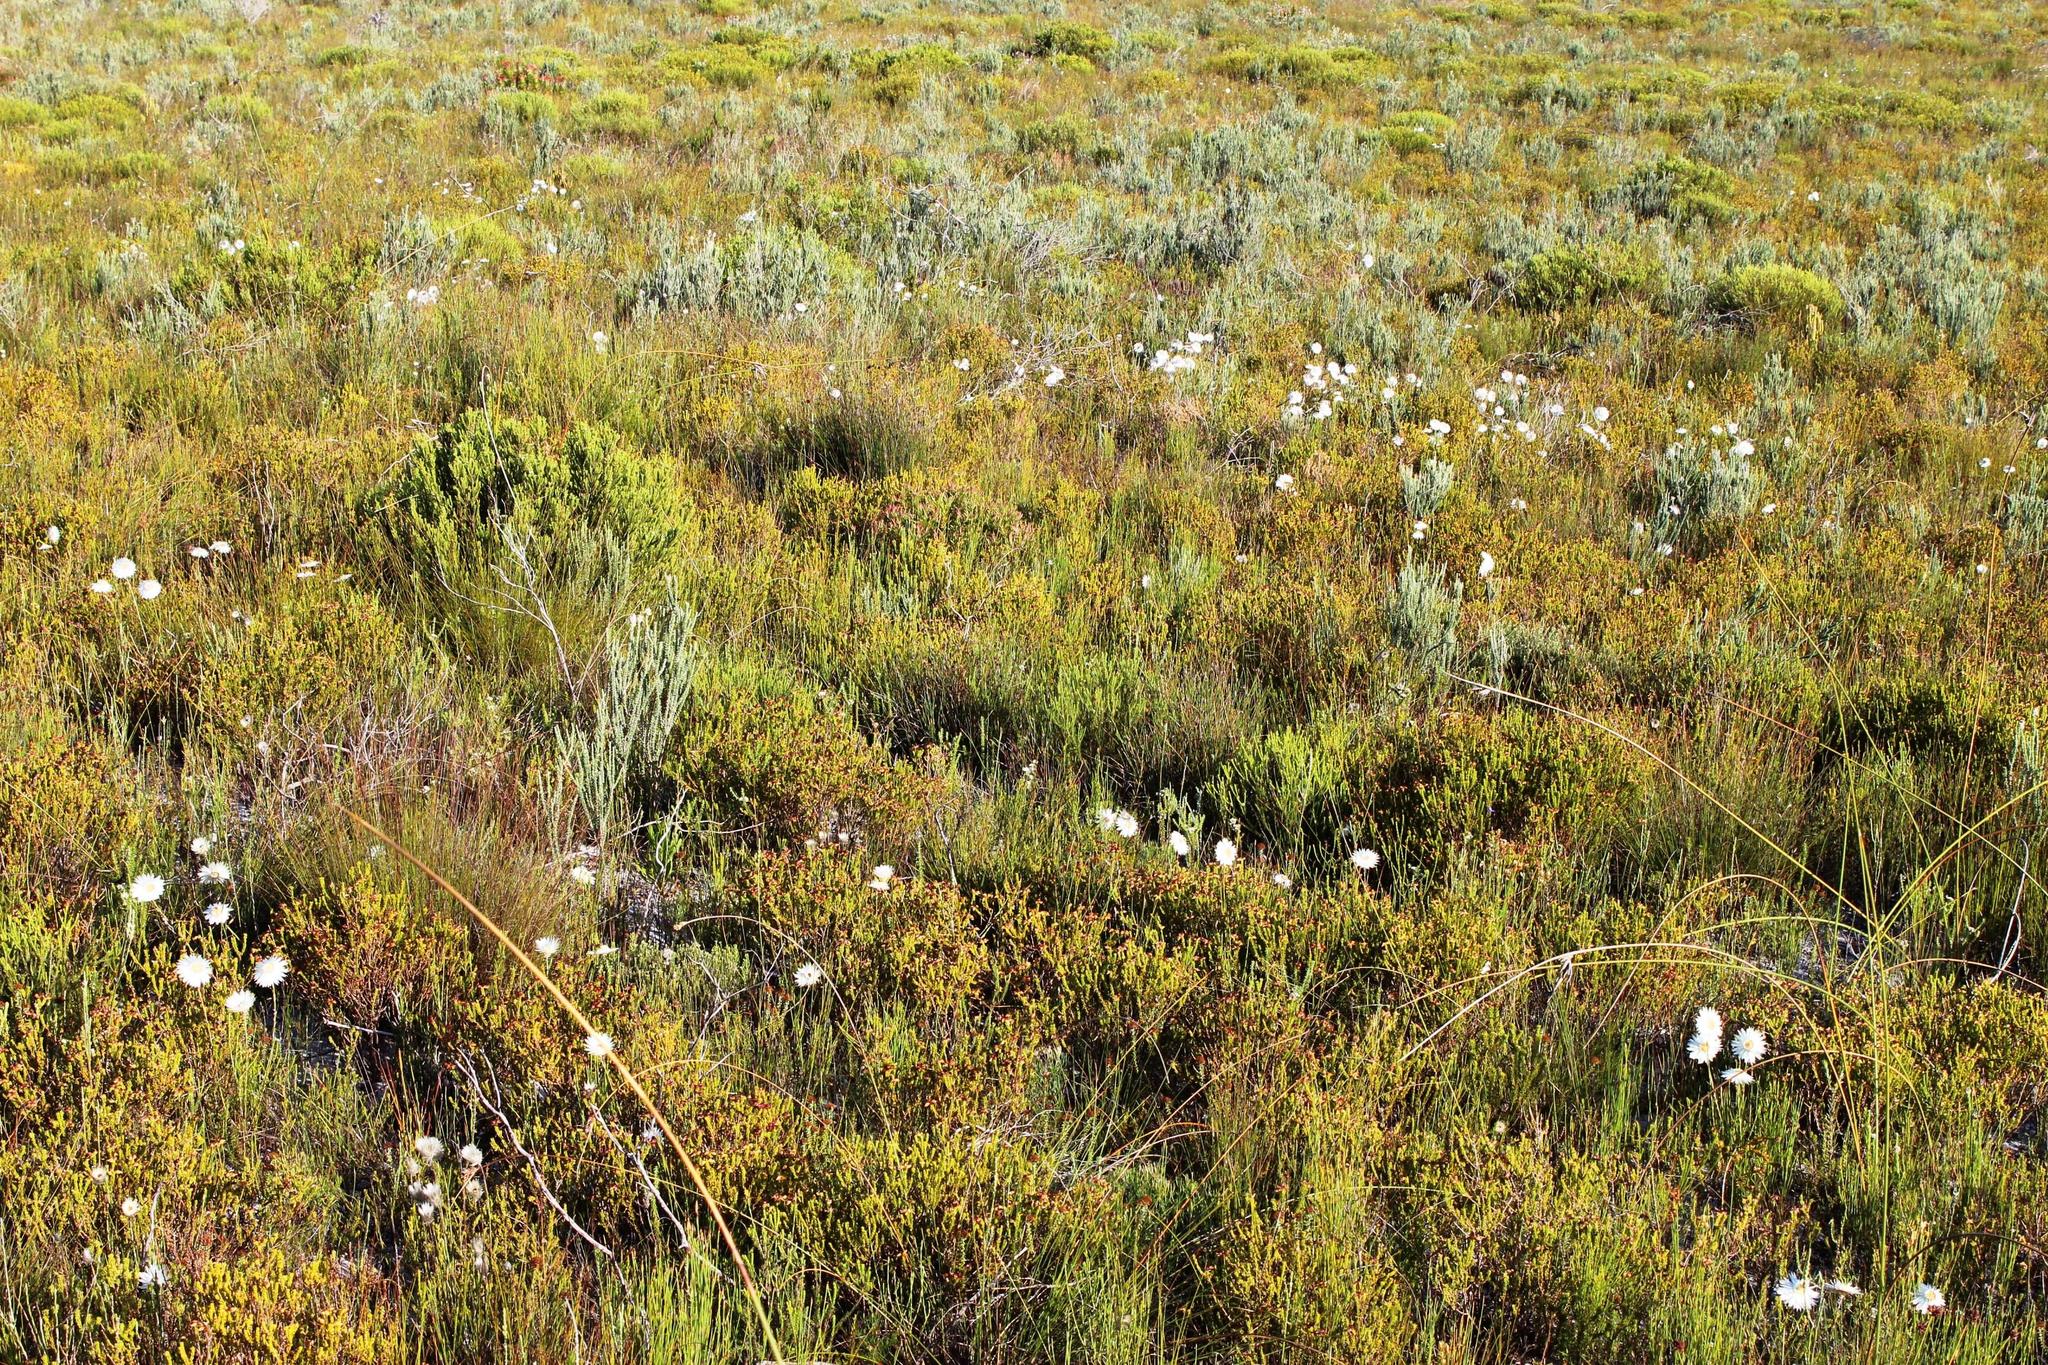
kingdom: Plantae
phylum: Tracheophyta
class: Magnoliopsida
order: Fabales
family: Fabaceae
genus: Aspalathus
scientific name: Aspalathus fusca
